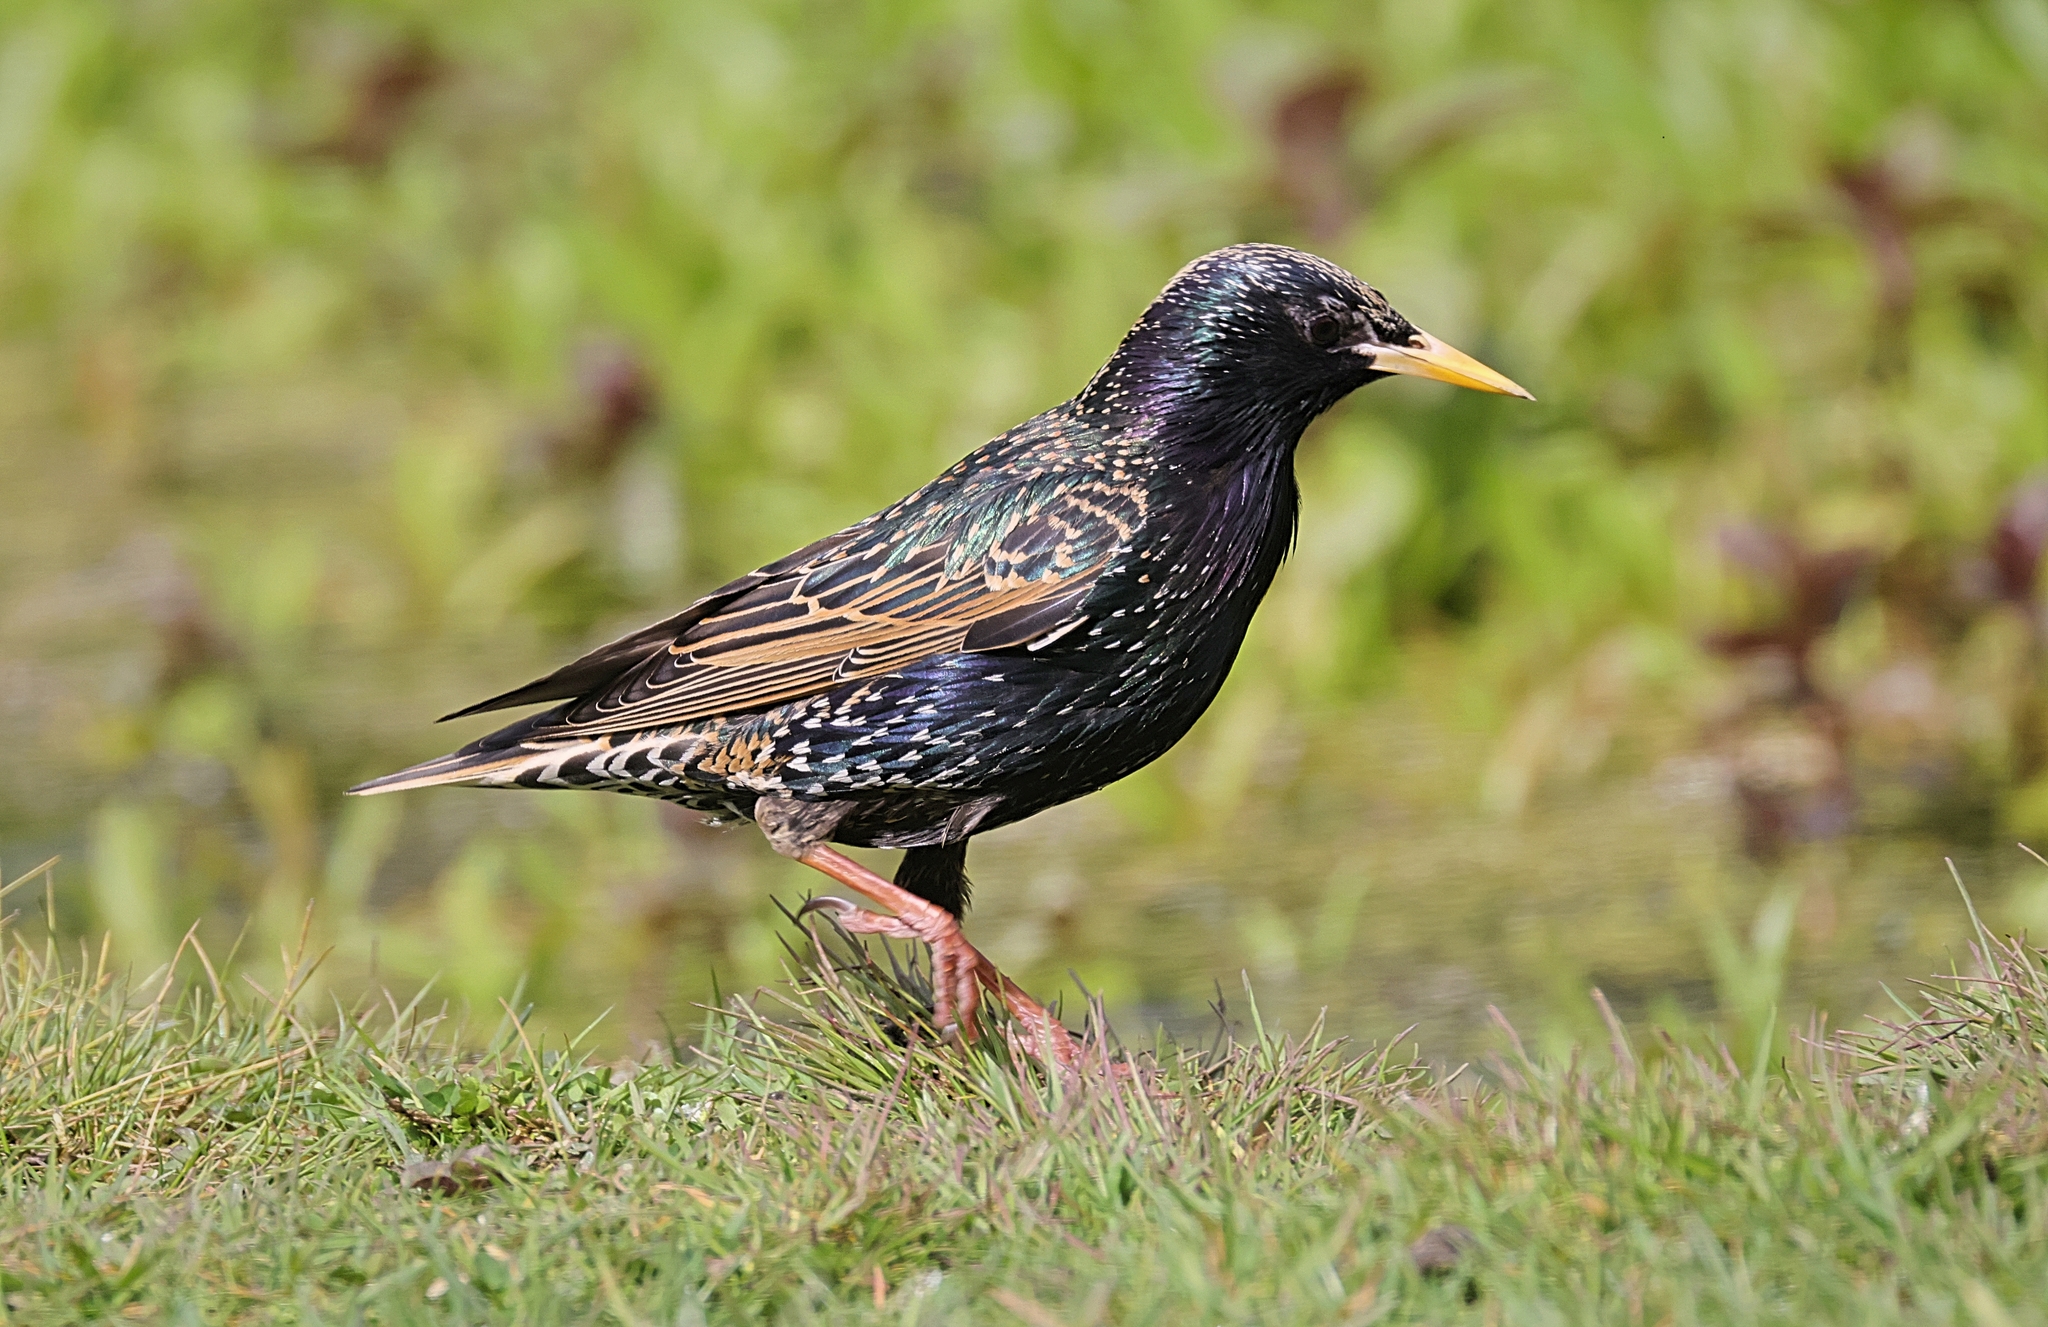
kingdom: Animalia
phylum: Chordata
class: Aves
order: Passeriformes
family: Sturnidae
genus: Sturnus
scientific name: Sturnus vulgaris
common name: Common starling
